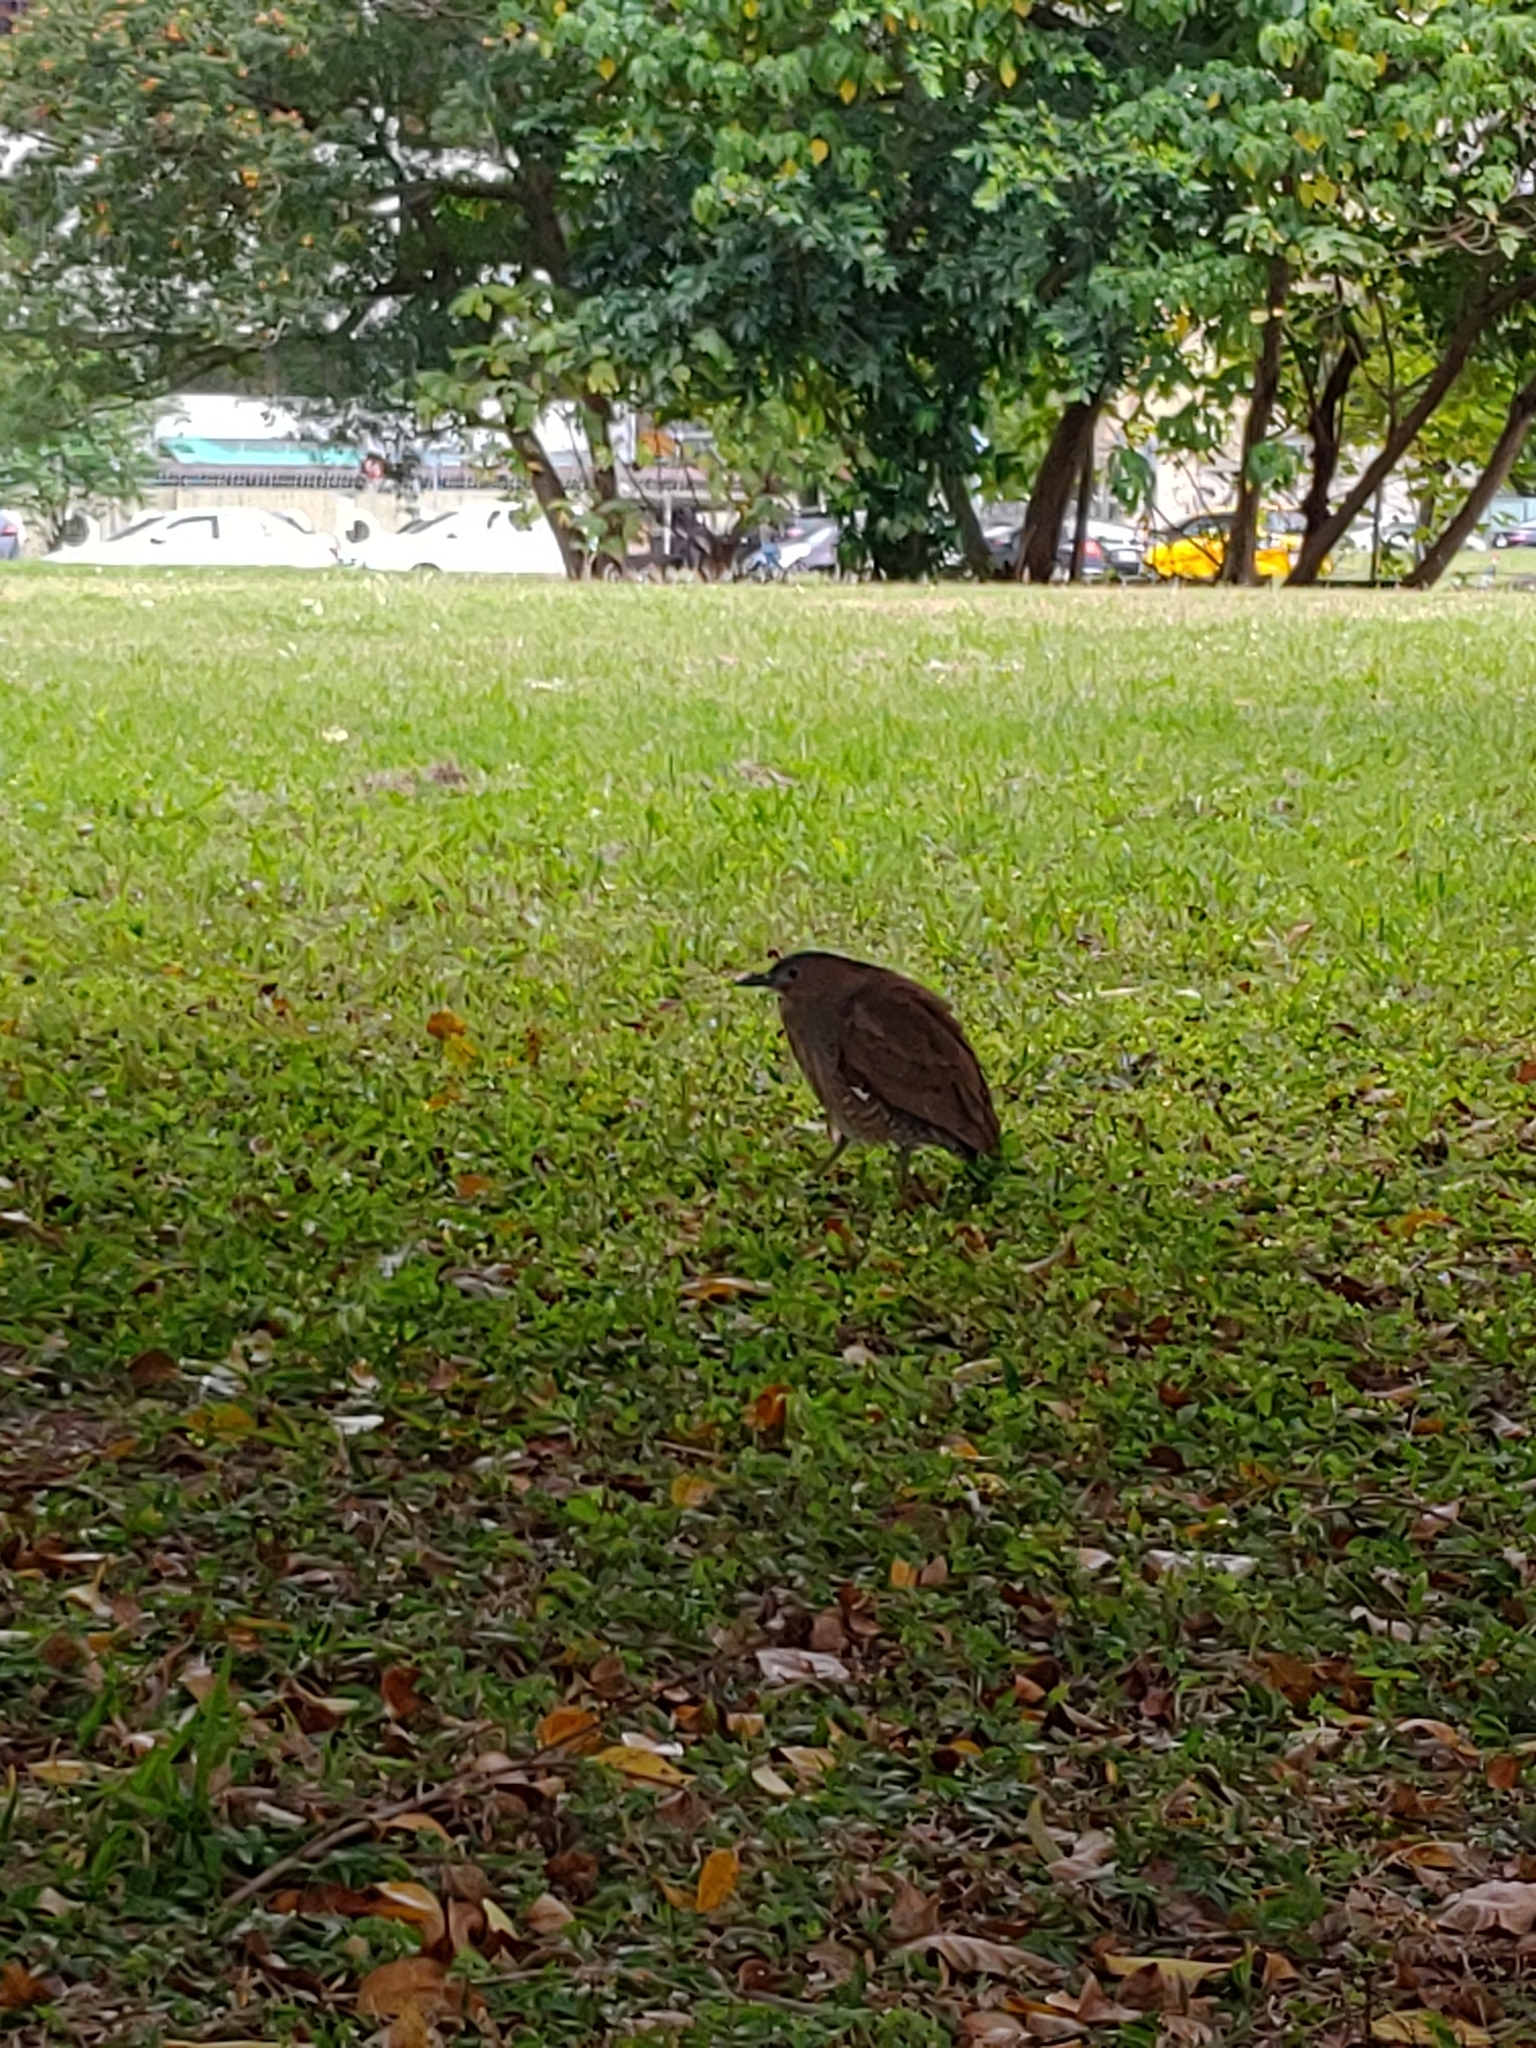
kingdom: Animalia
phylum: Chordata
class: Aves
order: Pelecaniformes
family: Ardeidae
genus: Gorsachius
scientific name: Gorsachius melanolophus
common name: Malayan night heron
